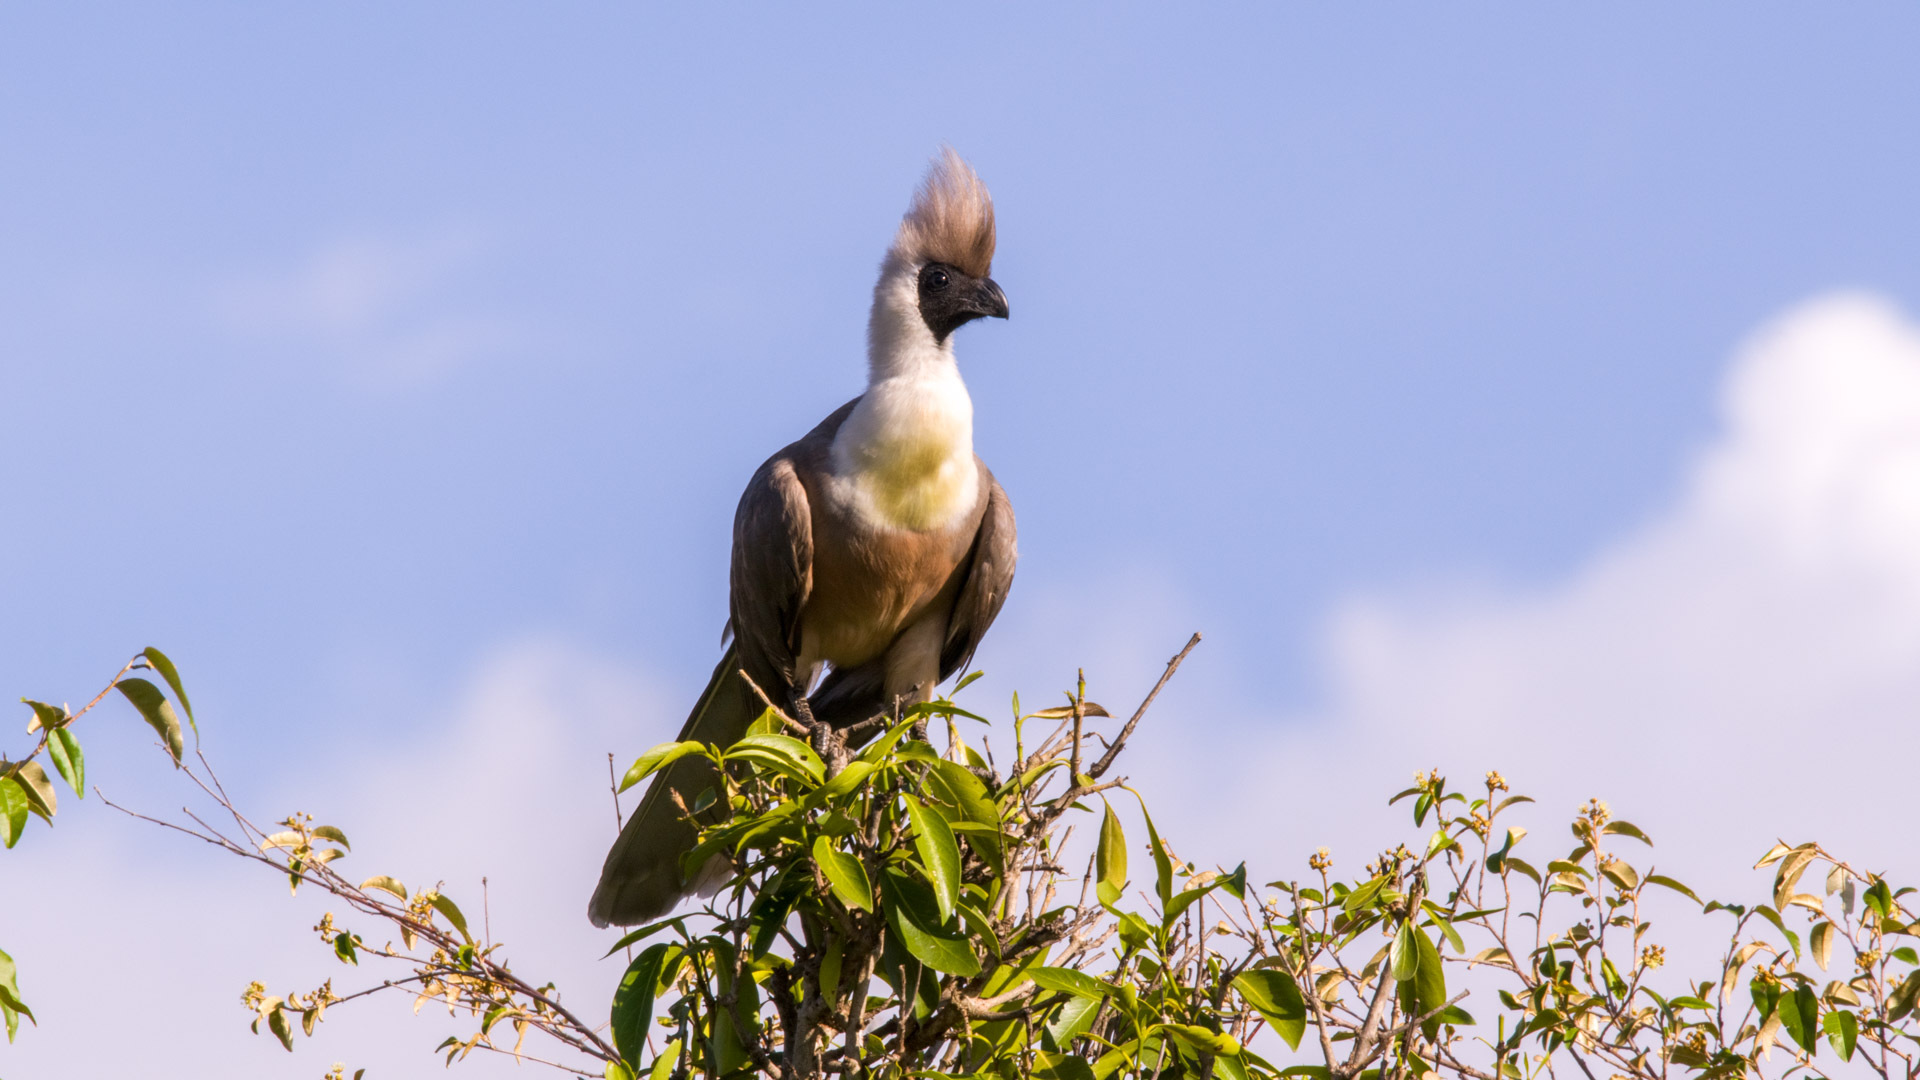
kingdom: Animalia
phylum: Chordata
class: Aves
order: Musophagiformes
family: Musophagidae
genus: Corythaixoides
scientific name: Corythaixoides personatus
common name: Bare-faced go-away-bird
